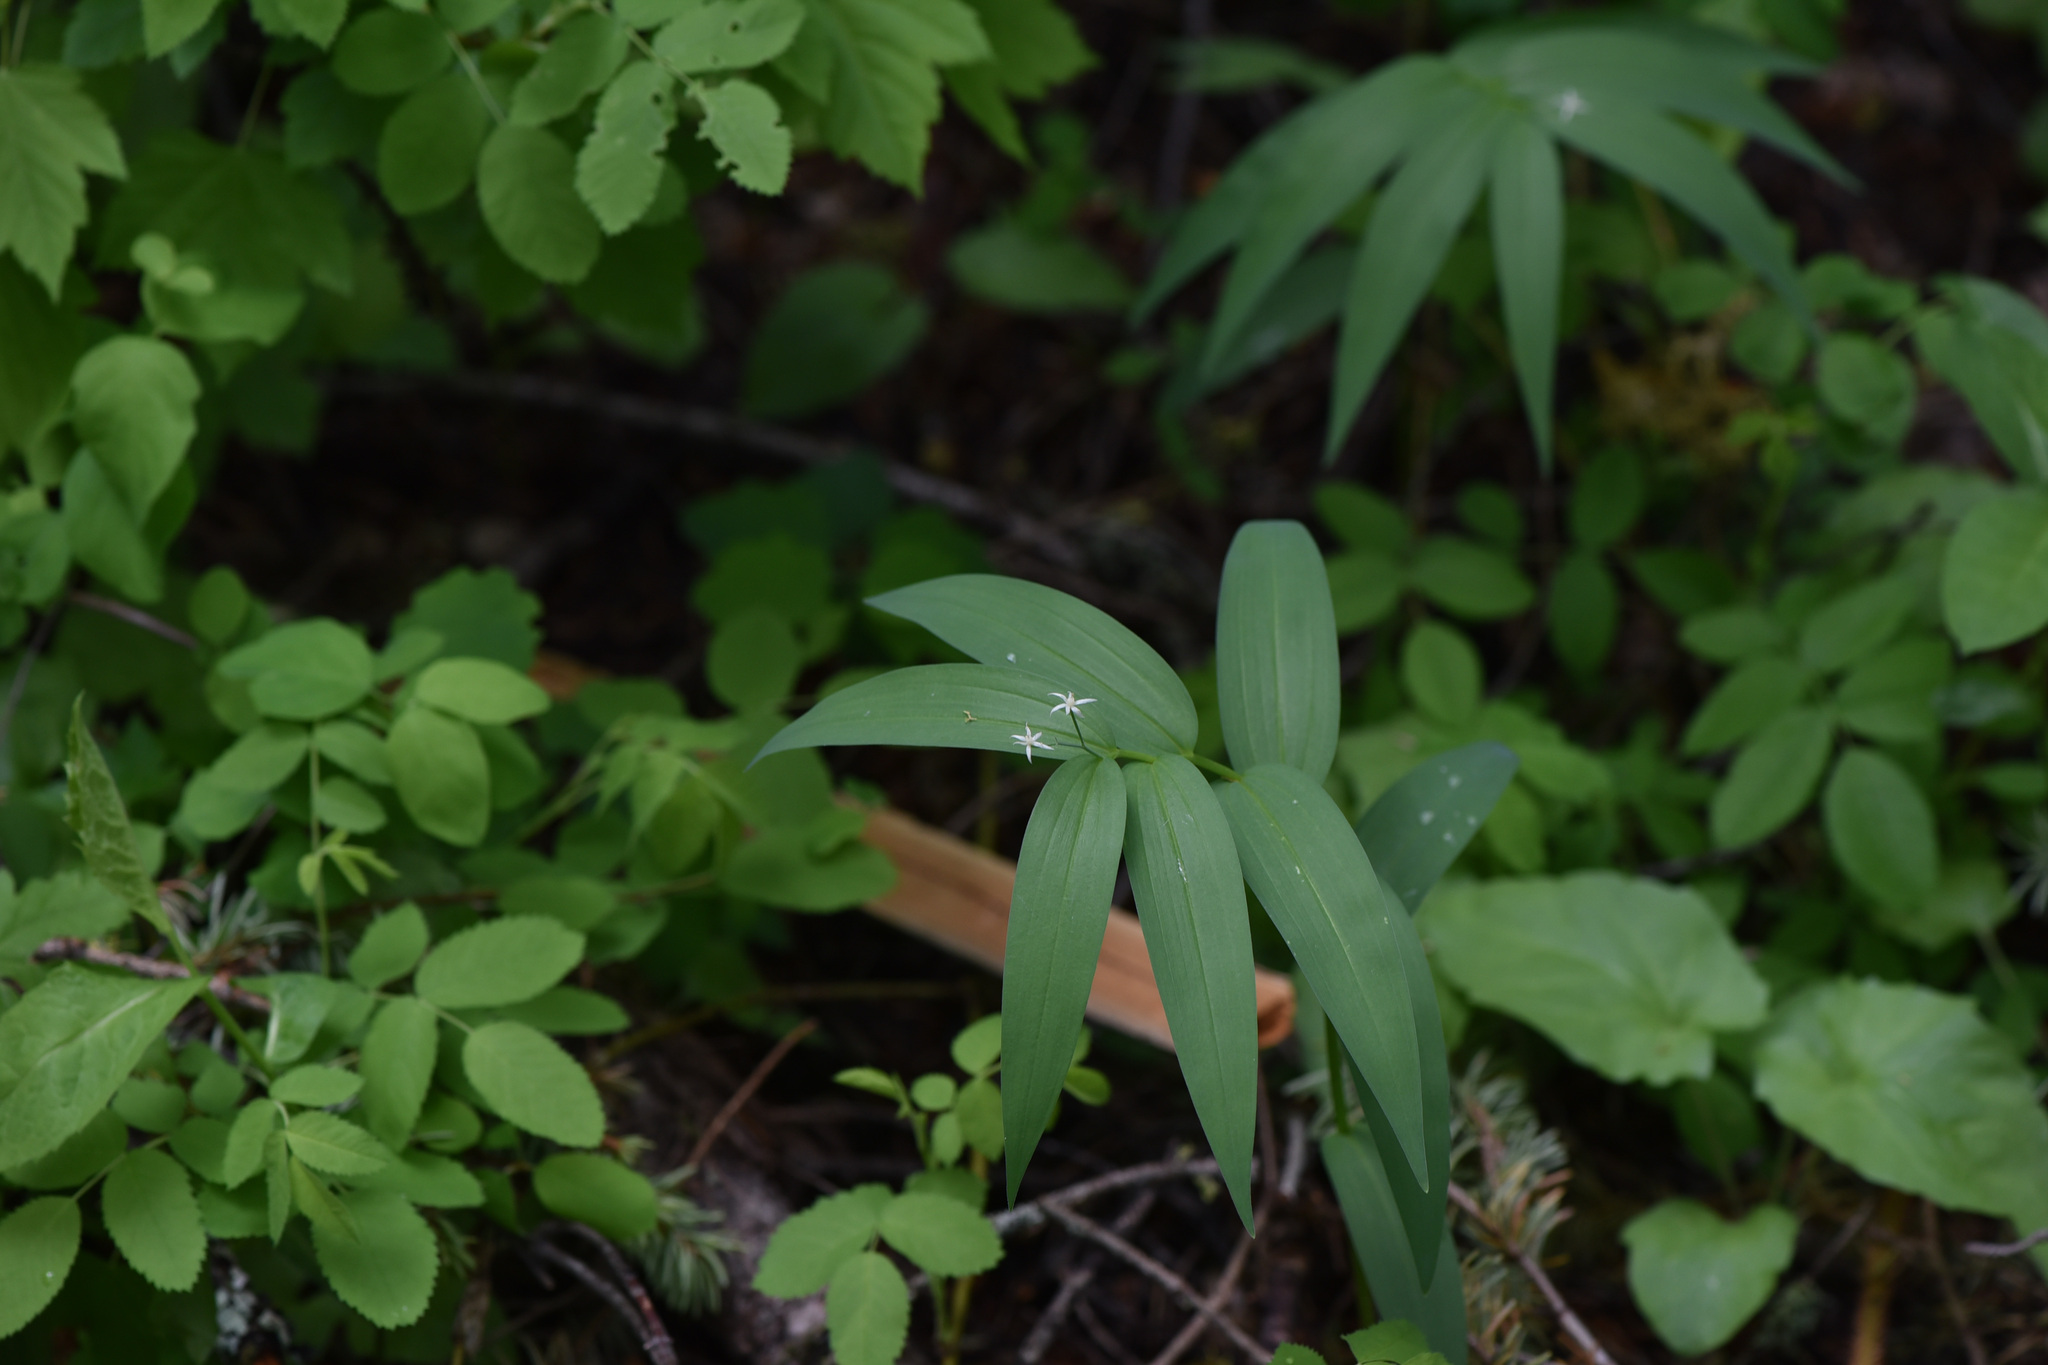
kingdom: Plantae
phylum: Tracheophyta
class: Liliopsida
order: Asparagales
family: Asparagaceae
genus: Maianthemum
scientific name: Maianthemum stellatum
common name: Little false solomon's seal
